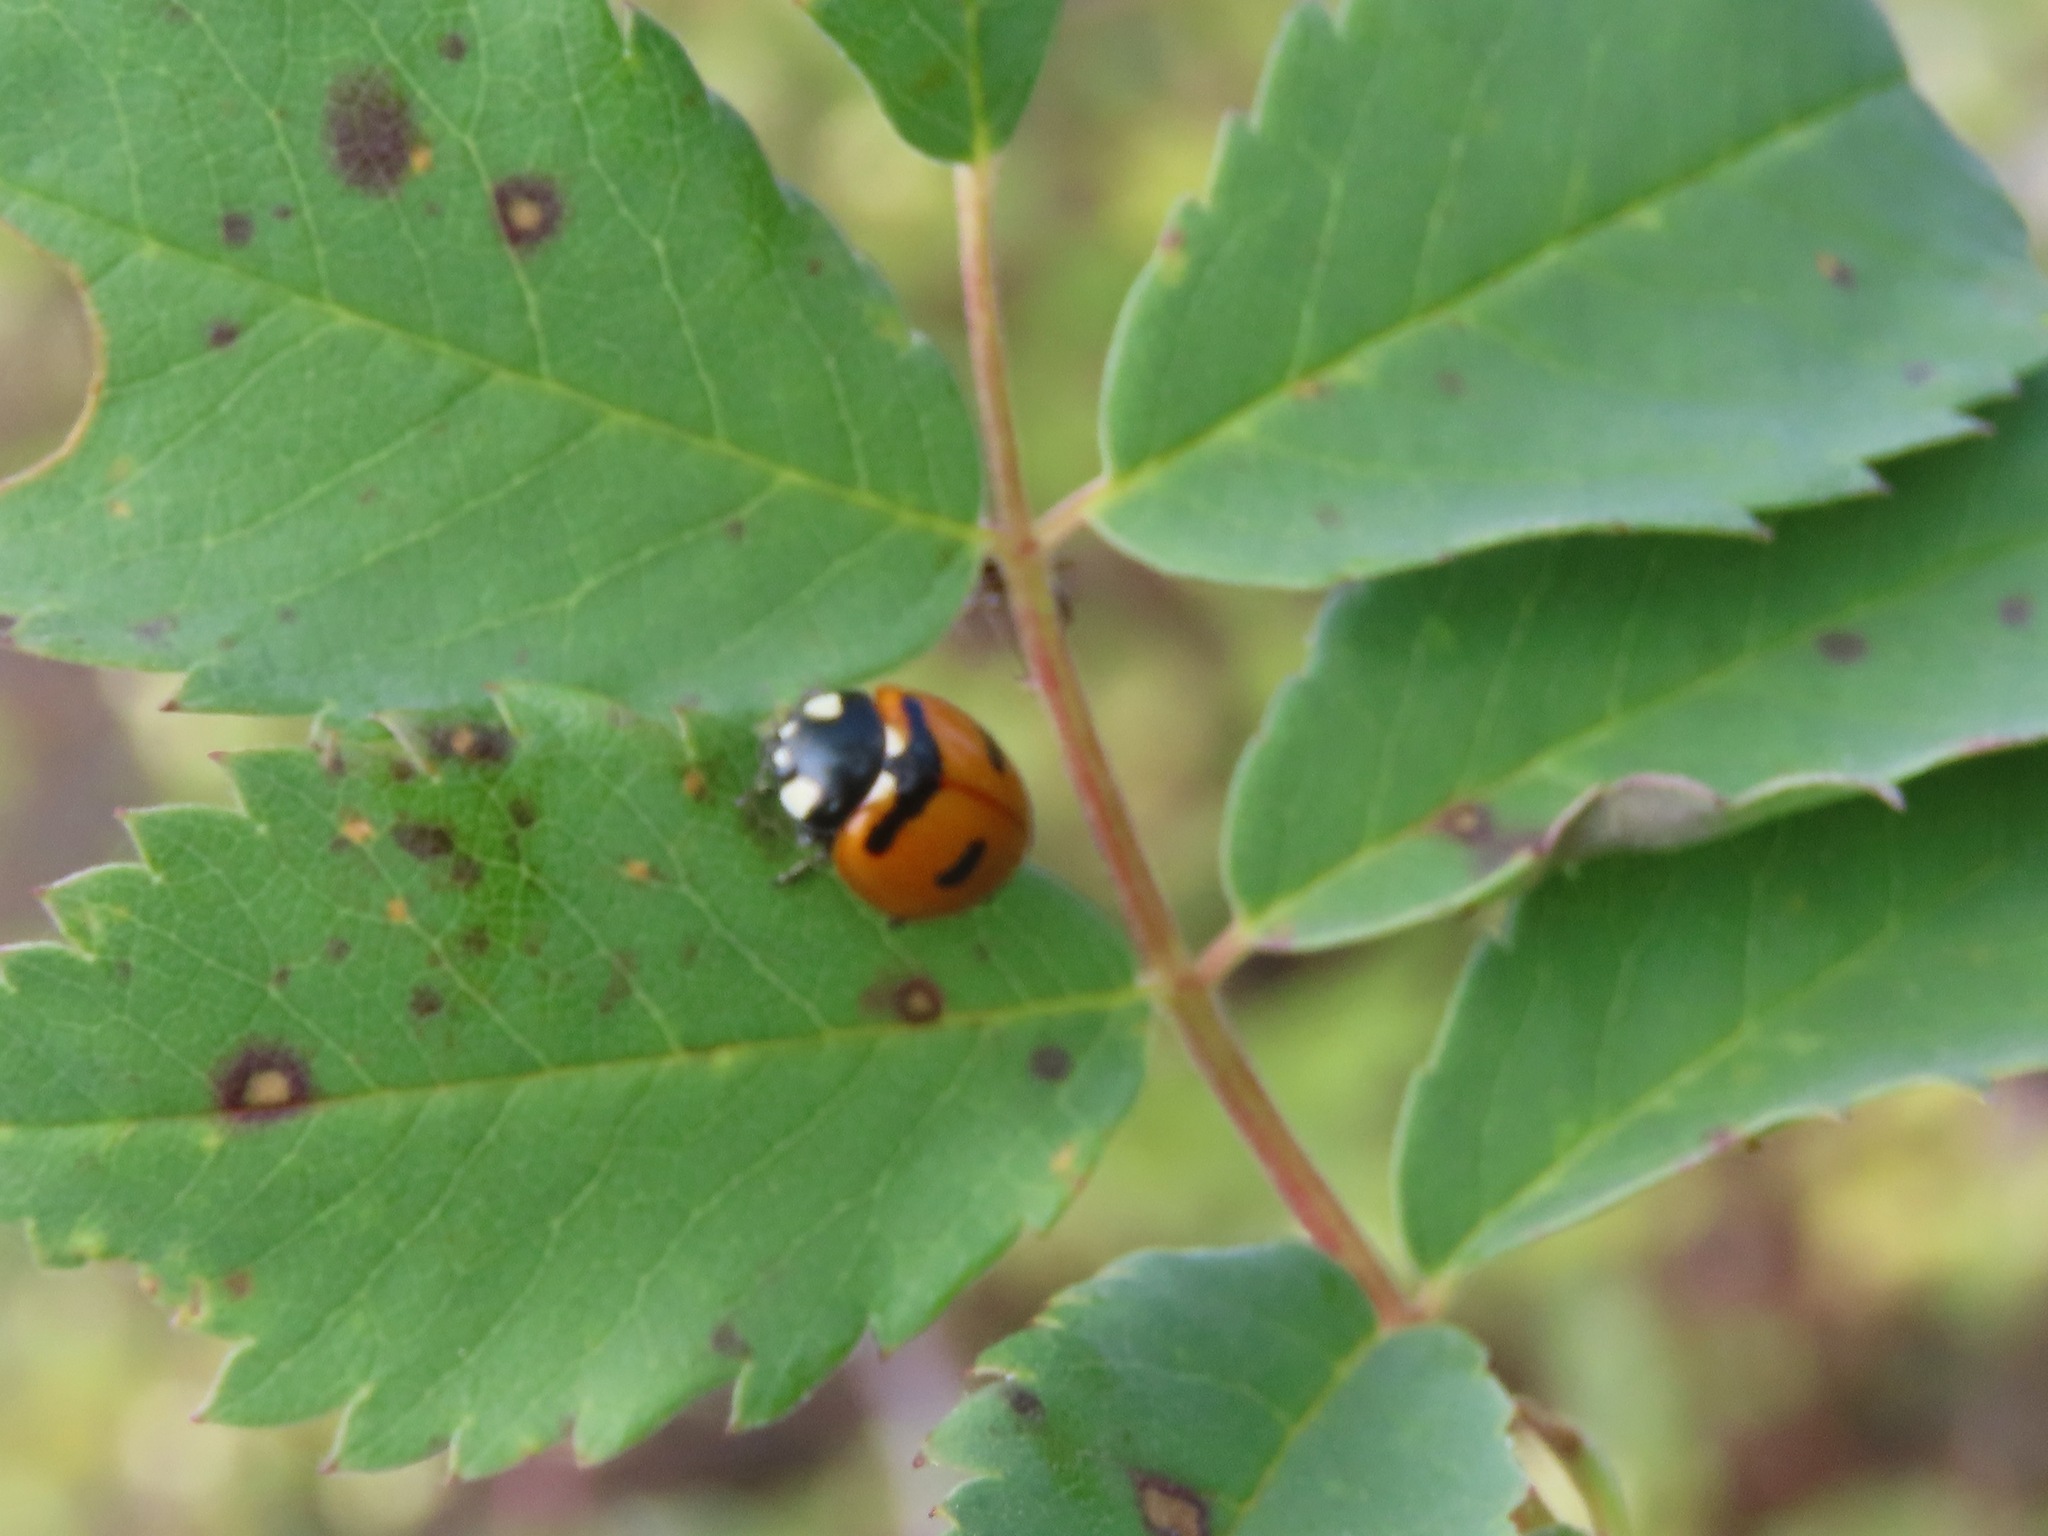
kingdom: Animalia
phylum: Arthropoda
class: Insecta
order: Coleoptera
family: Coccinellidae
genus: Coccinella
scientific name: Coccinella transversoguttata
